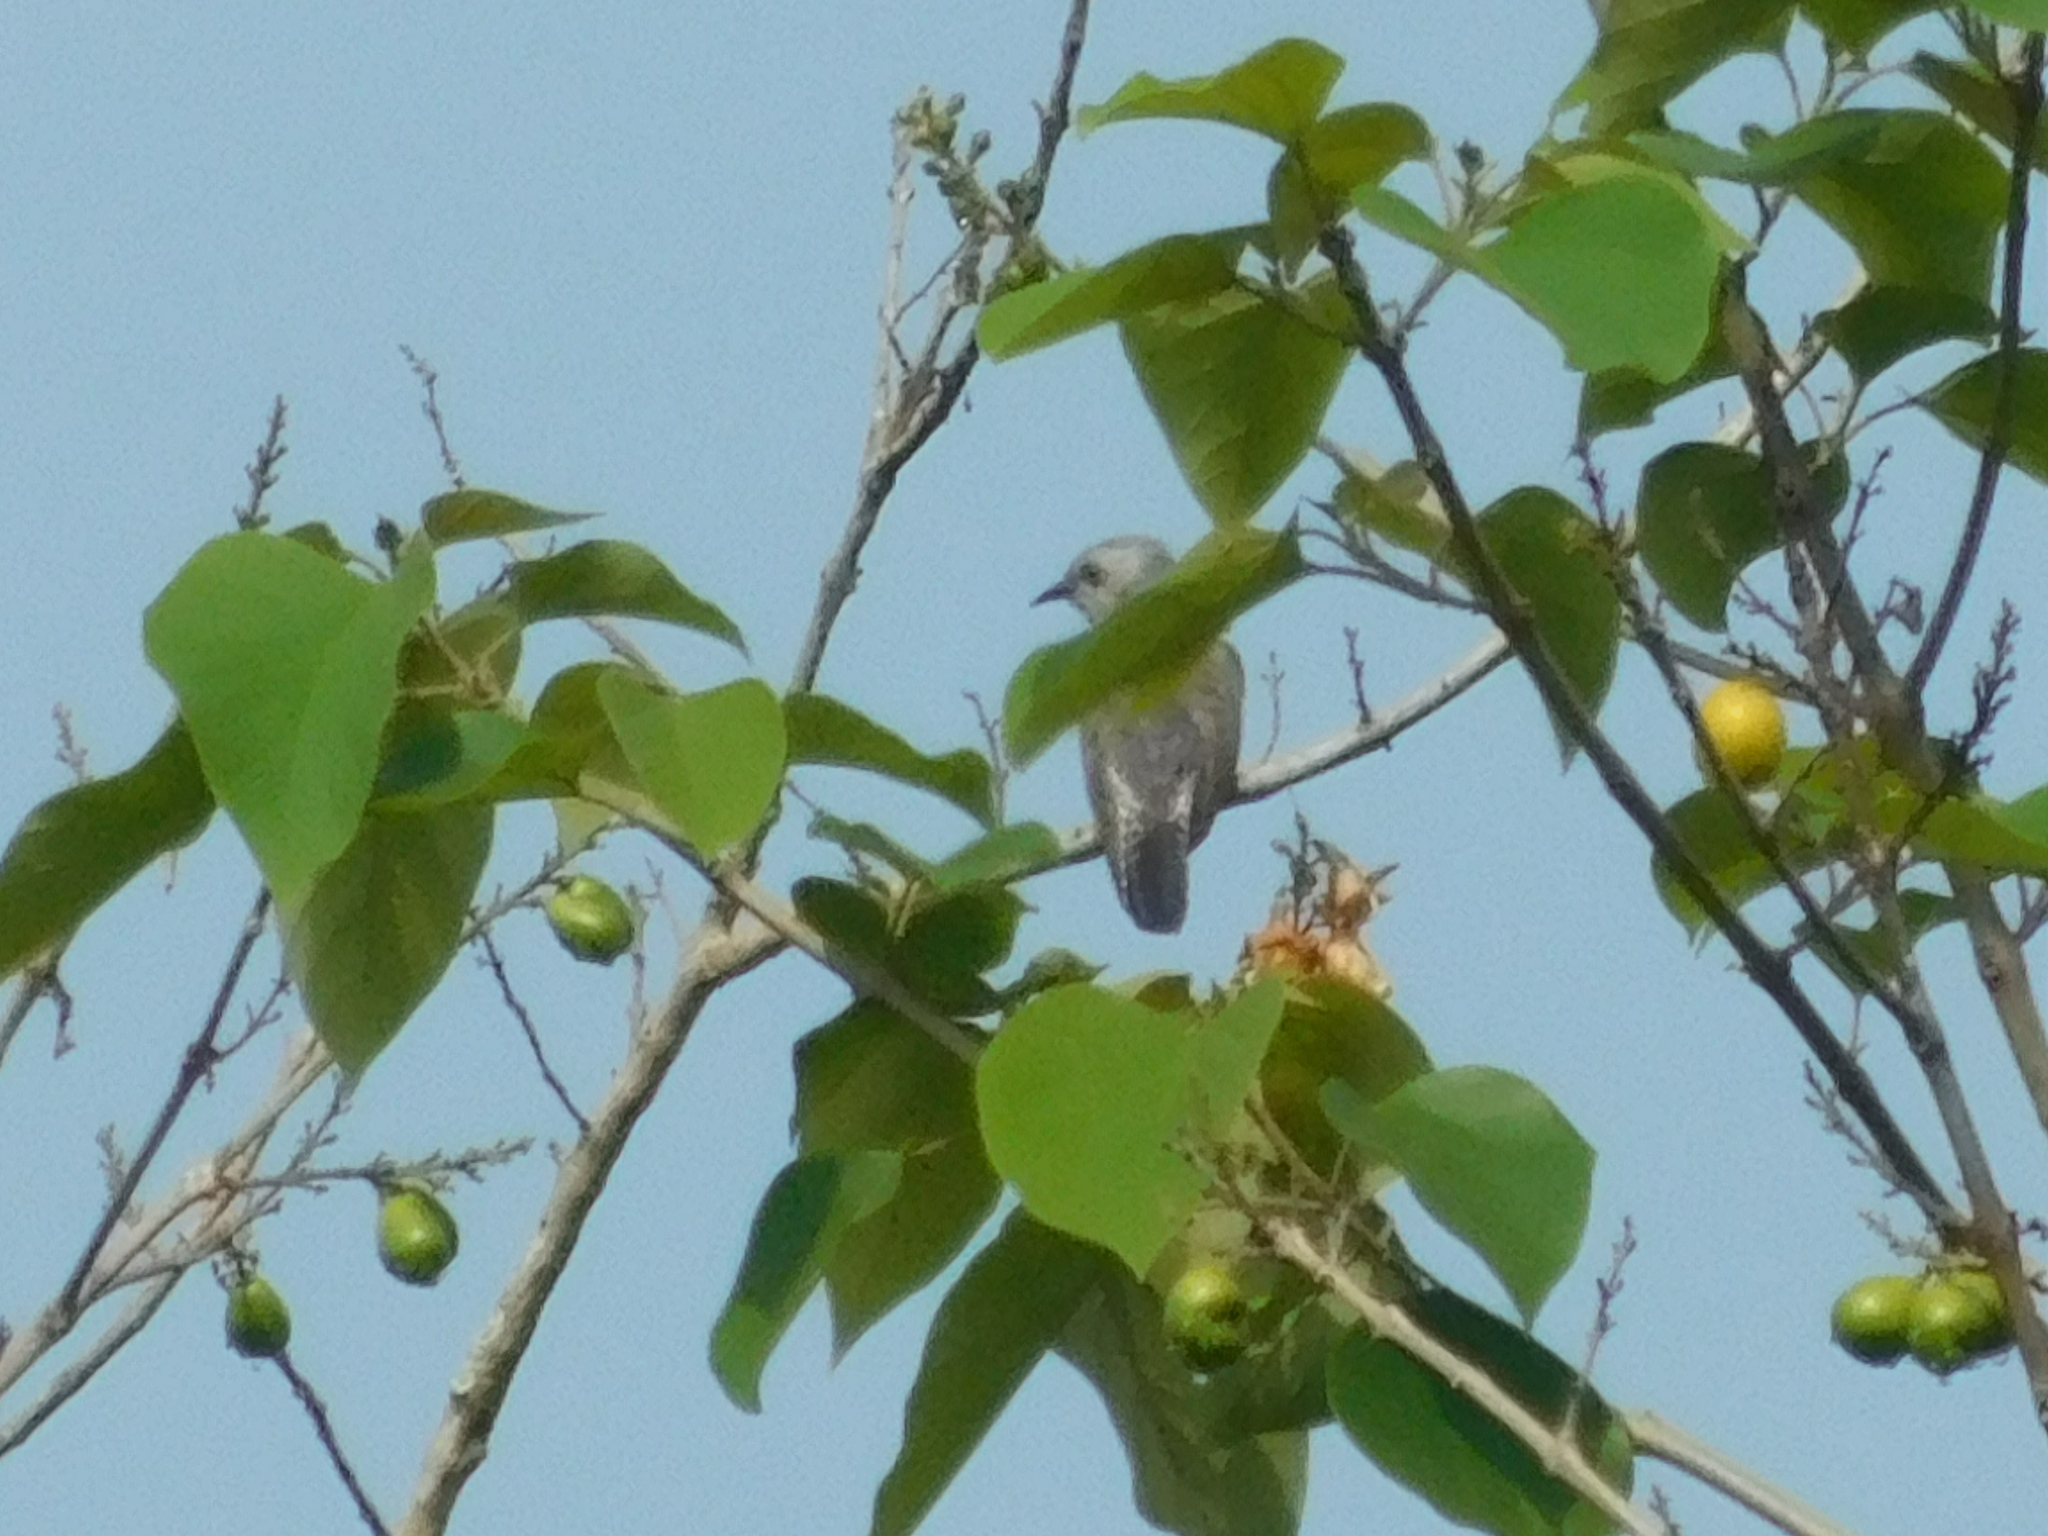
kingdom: Animalia
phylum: Chordata
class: Aves
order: Cuculiformes
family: Cuculidae
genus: Cacomantis
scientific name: Cacomantis merulinus
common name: Plaintive cuckoo
